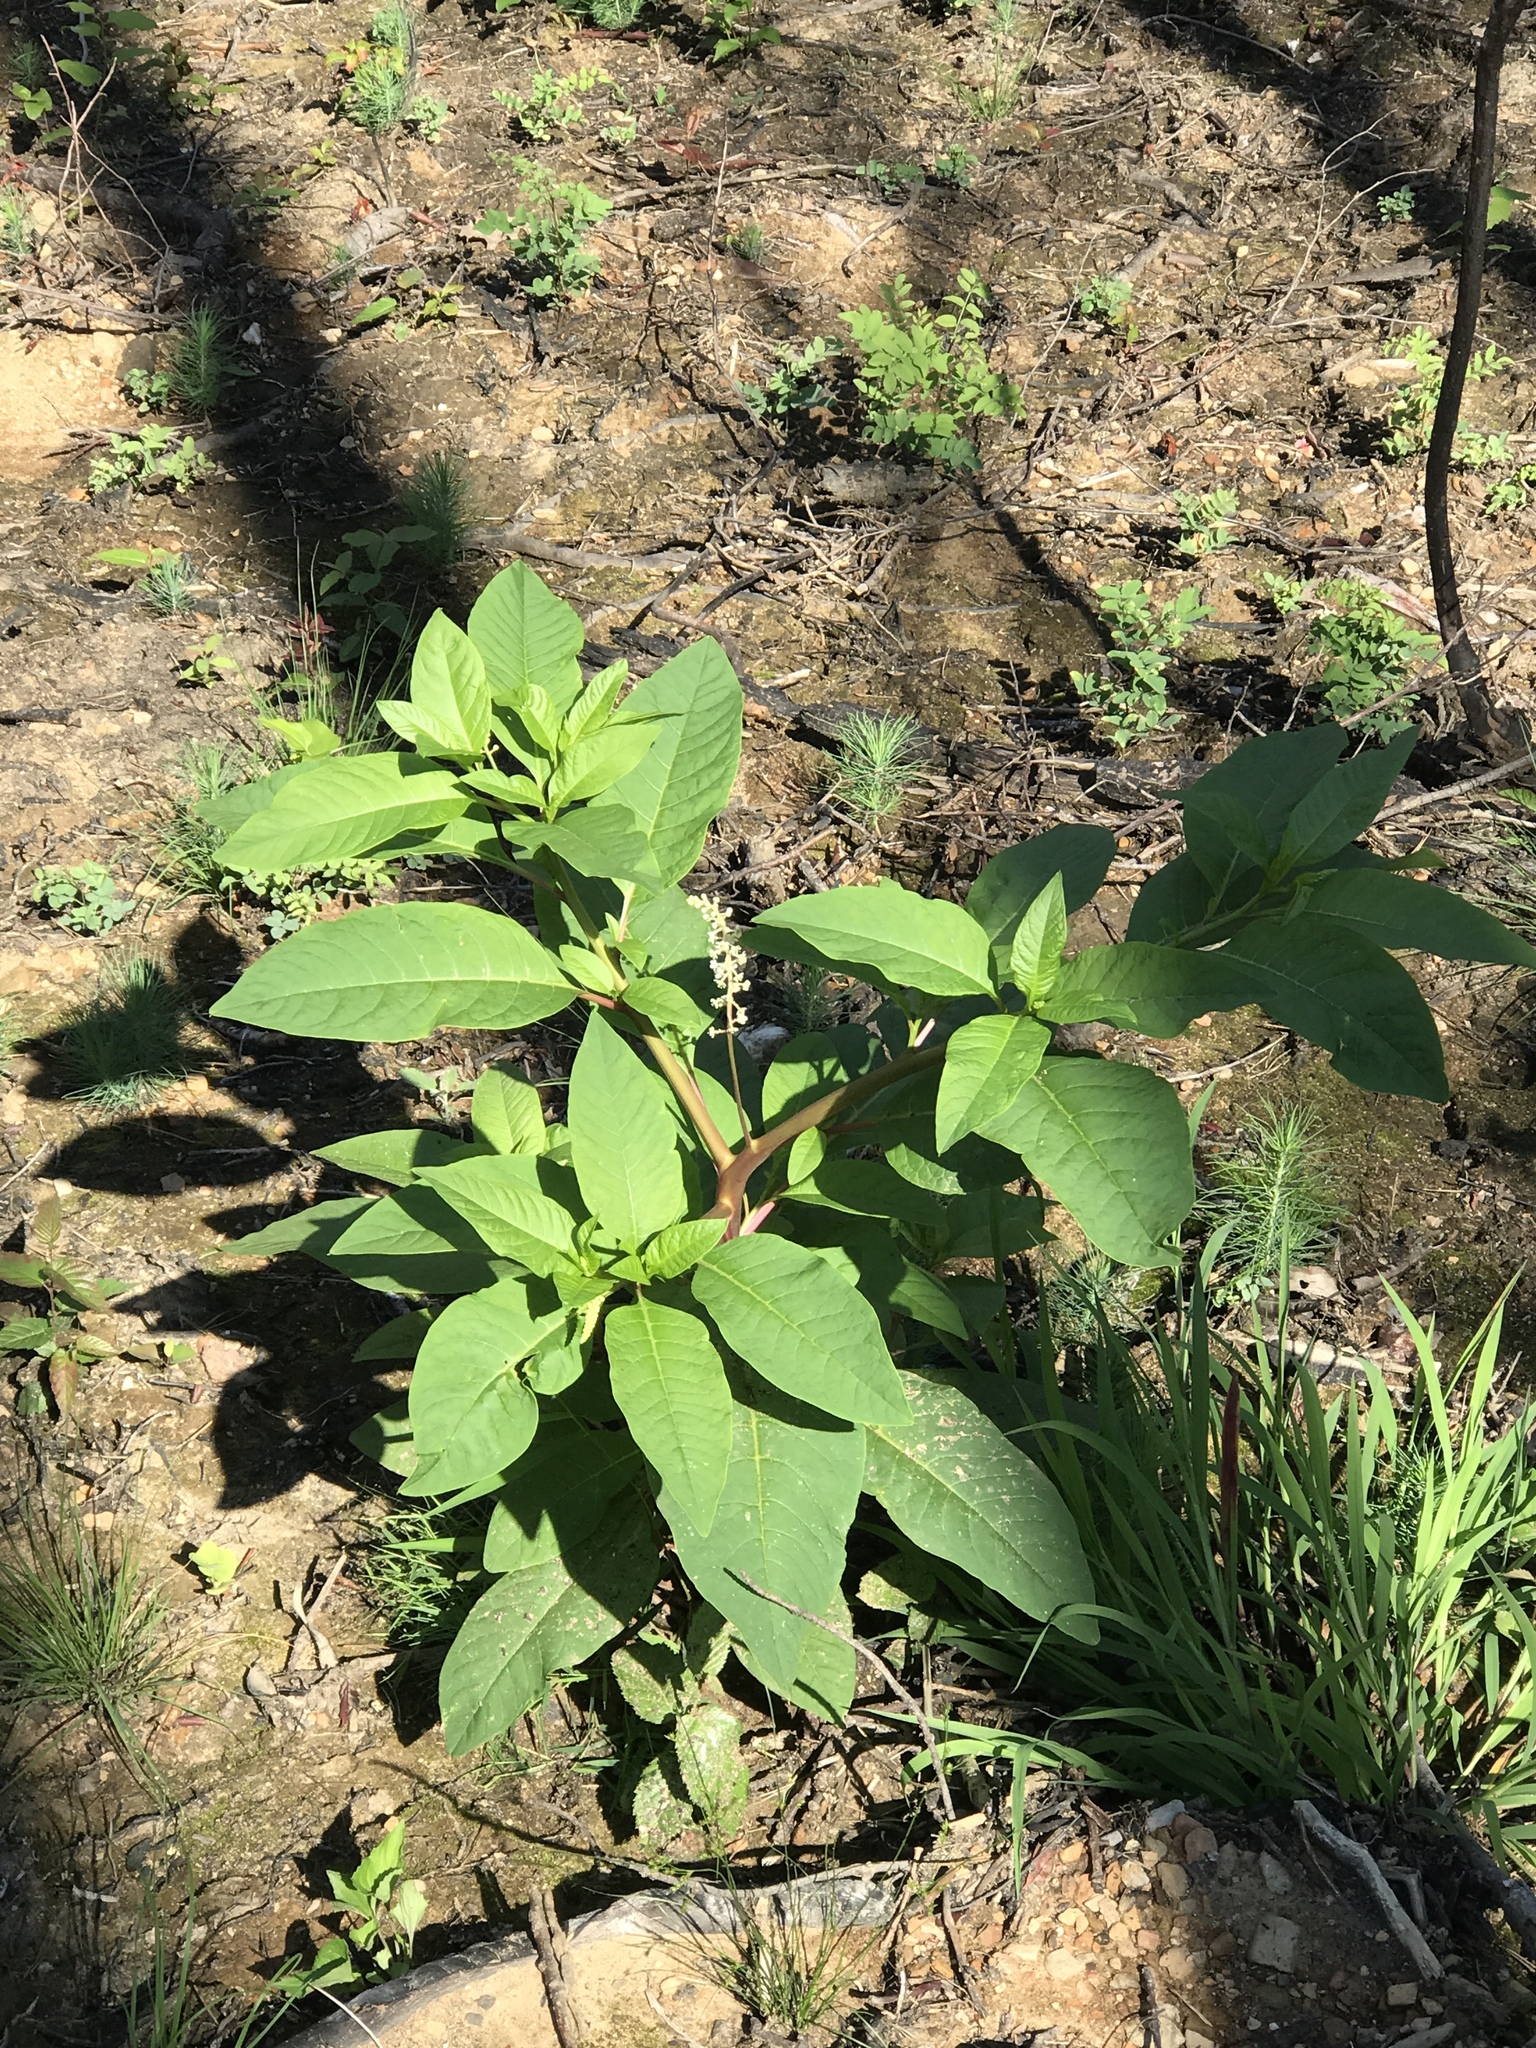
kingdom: Plantae
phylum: Tracheophyta
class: Magnoliopsida
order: Caryophyllales
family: Phytolaccaceae
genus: Phytolacca
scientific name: Phytolacca americana
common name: American pokeweed
